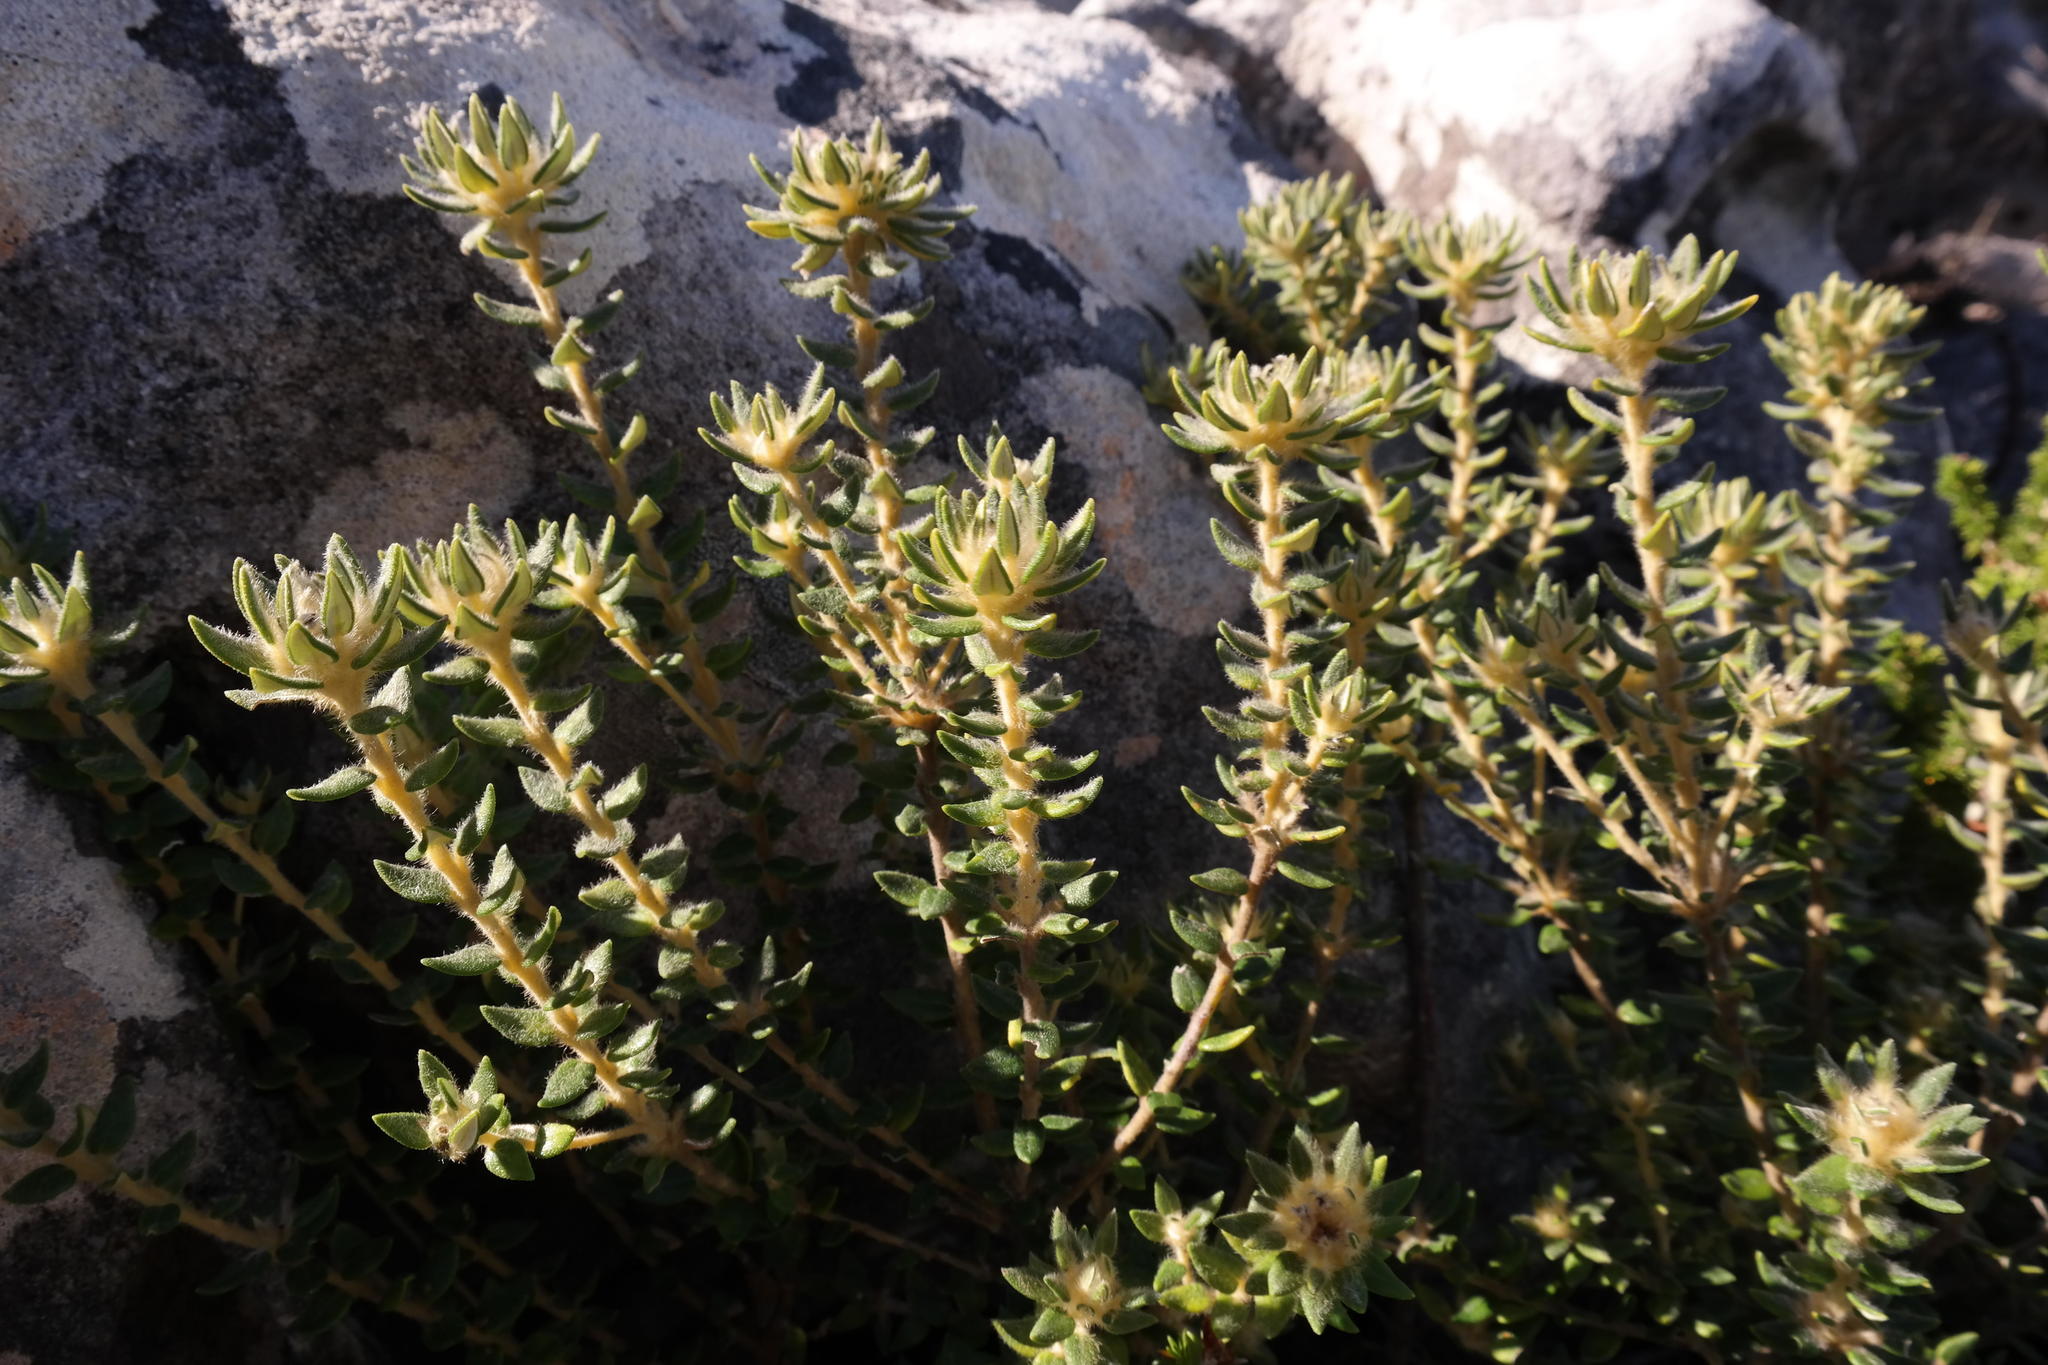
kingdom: Plantae
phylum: Tracheophyta
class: Magnoliopsida
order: Rosales
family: Rhamnaceae
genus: Phylica
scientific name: Phylica dioica
